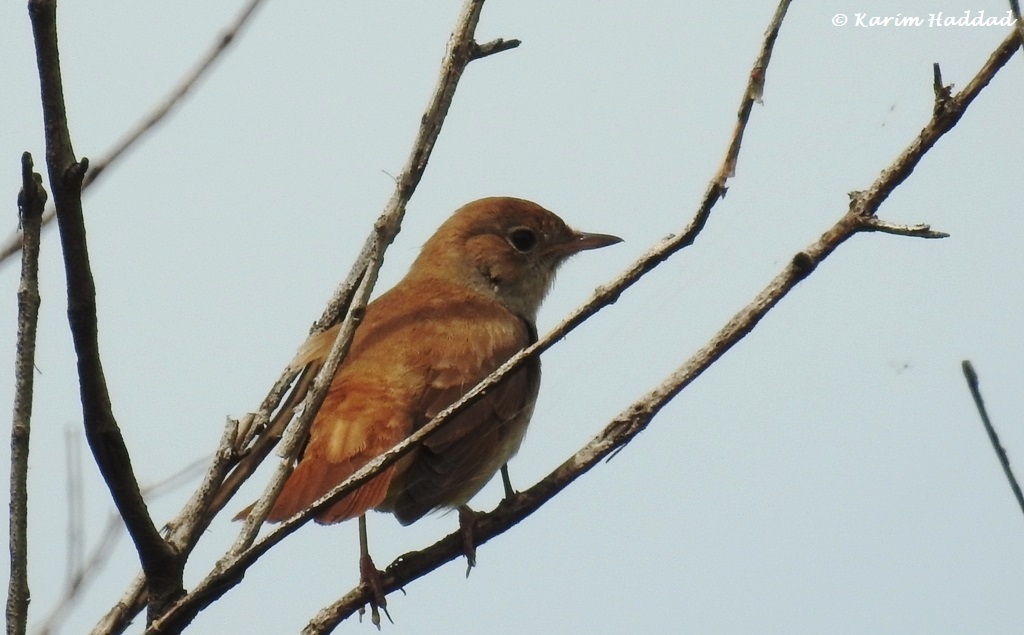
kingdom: Animalia
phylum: Chordata
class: Aves
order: Passeriformes
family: Muscicapidae
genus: Luscinia
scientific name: Luscinia megarhynchos
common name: Common nightingale
